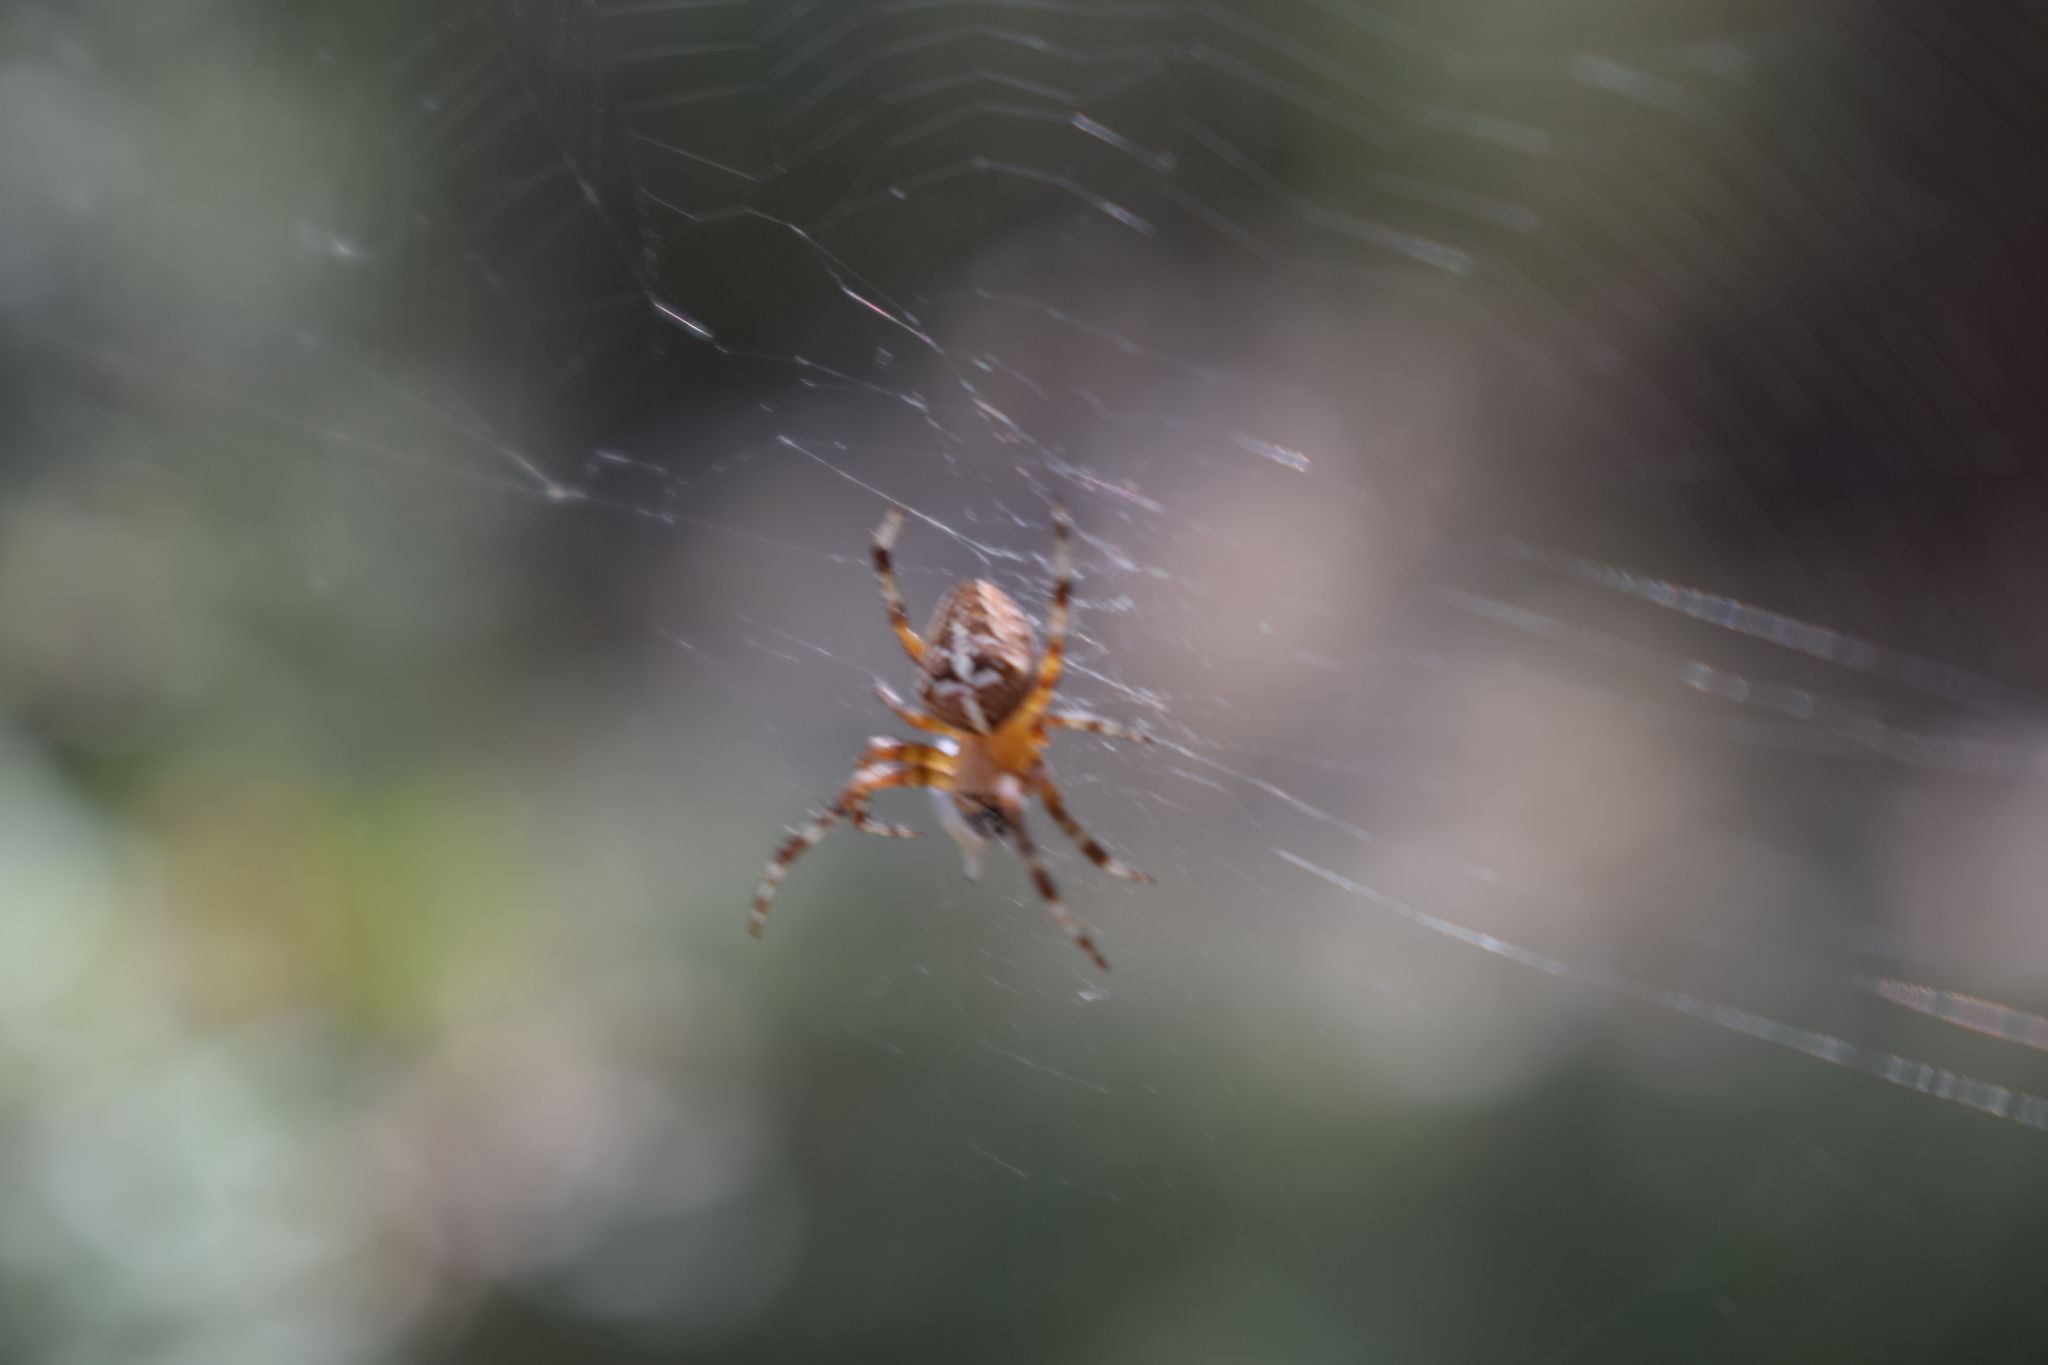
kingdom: Animalia
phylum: Arthropoda
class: Arachnida
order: Araneae
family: Araneidae
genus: Araneus
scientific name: Araneus diadematus
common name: Cross orbweaver
